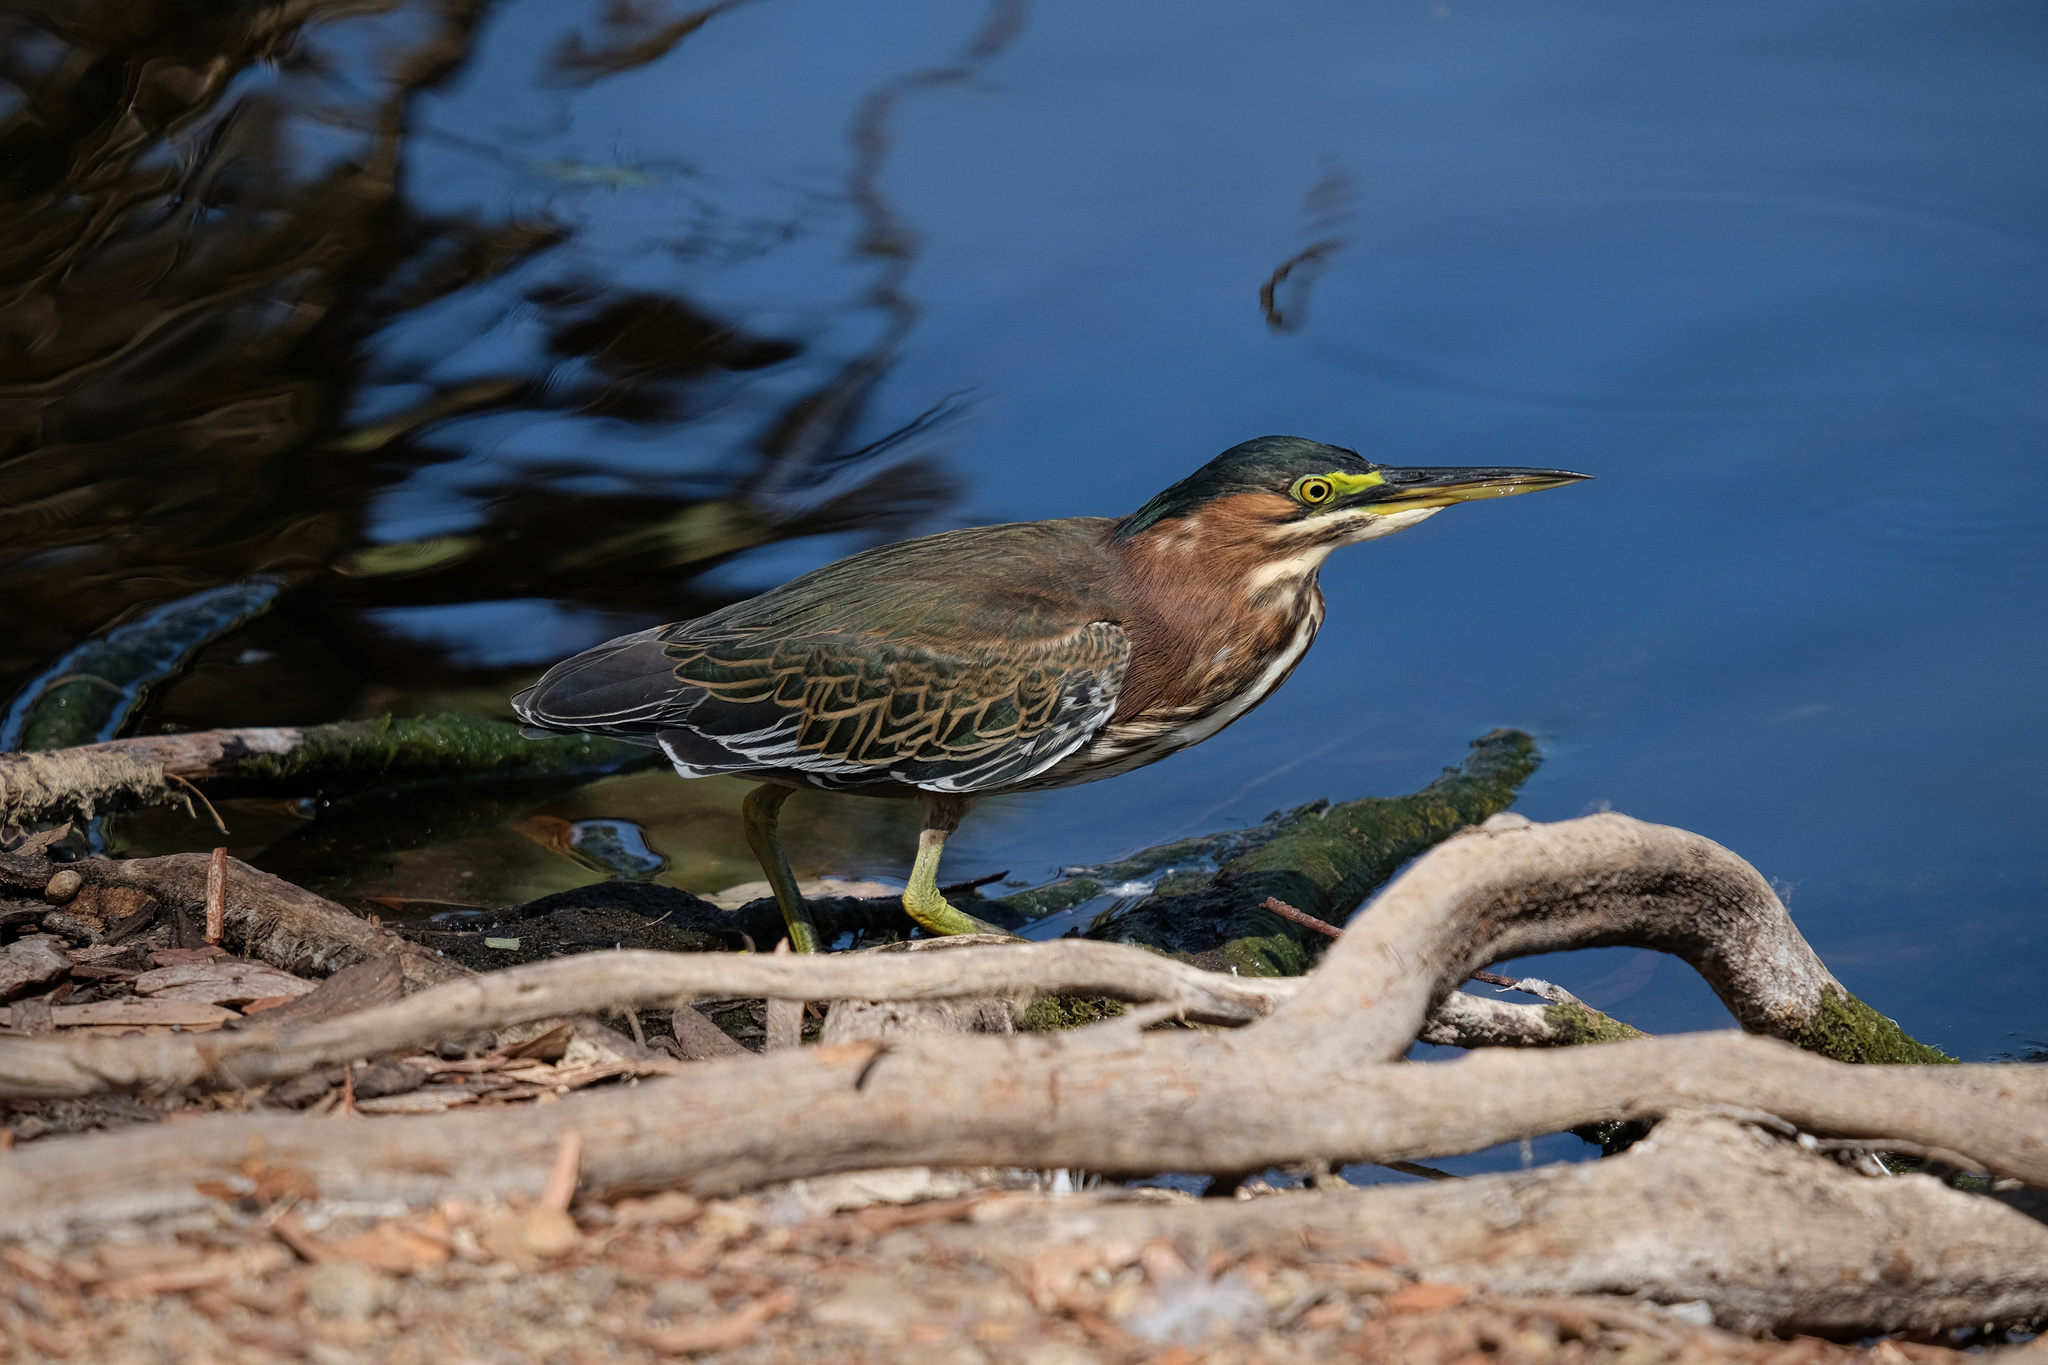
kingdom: Animalia
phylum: Chordata
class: Aves
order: Pelecaniformes
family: Ardeidae
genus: Butorides
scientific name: Butorides virescens
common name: Green heron
